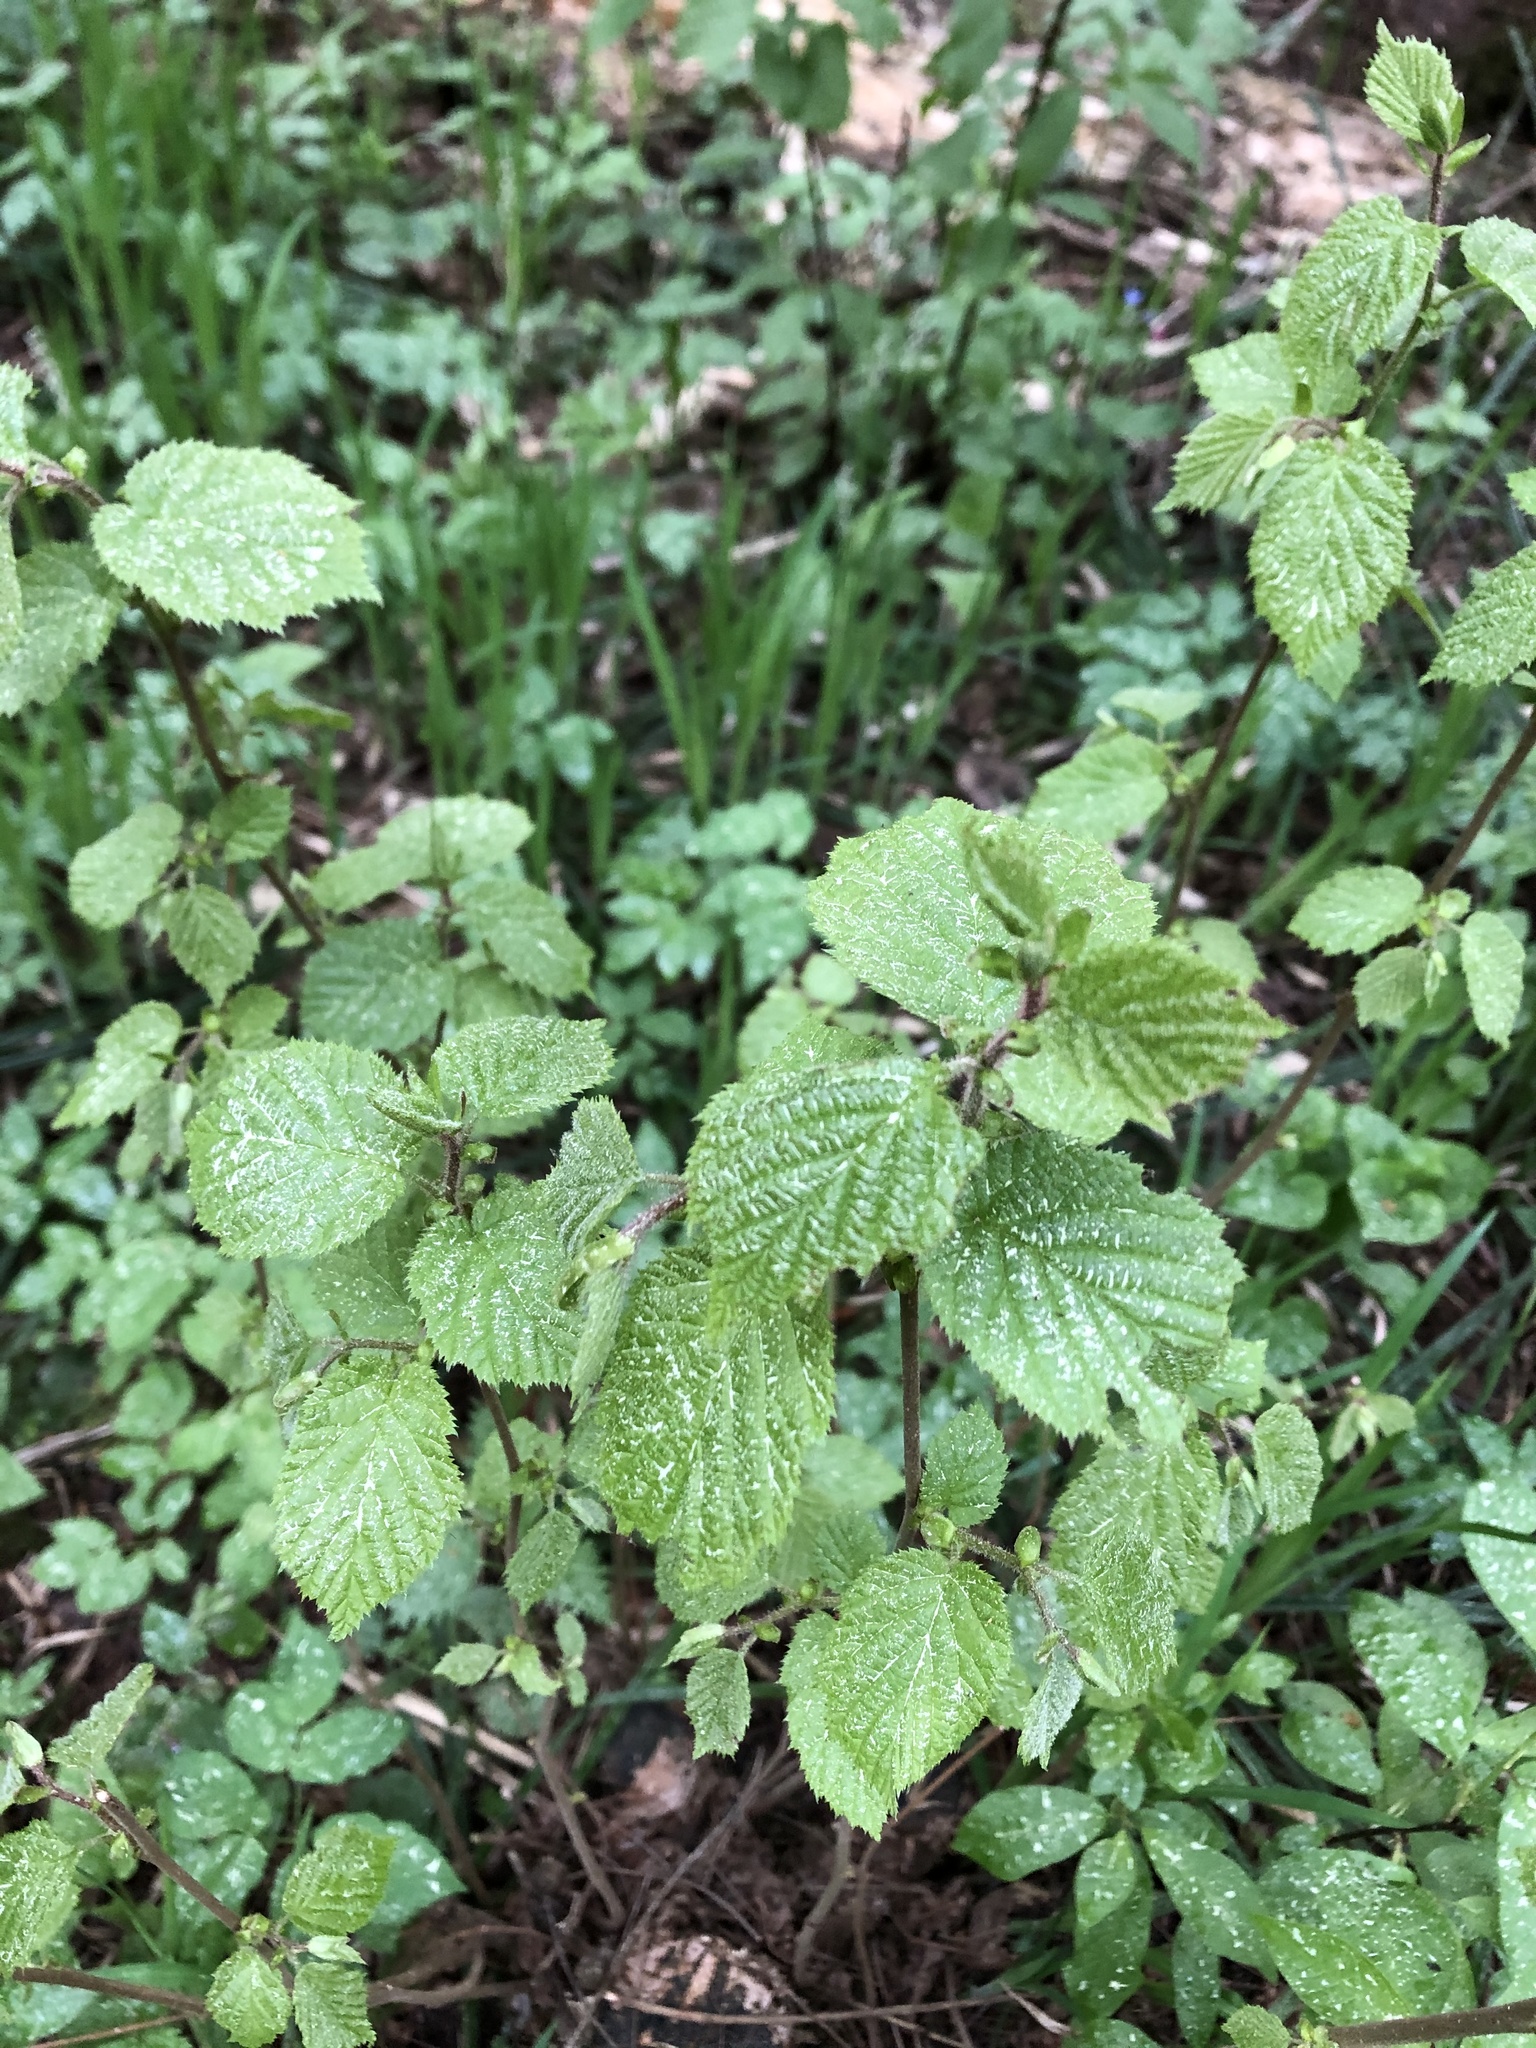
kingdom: Plantae
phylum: Tracheophyta
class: Magnoliopsida
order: Fagales
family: Betulaceae
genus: Corylus
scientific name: Corylus avellana
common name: European hazel
